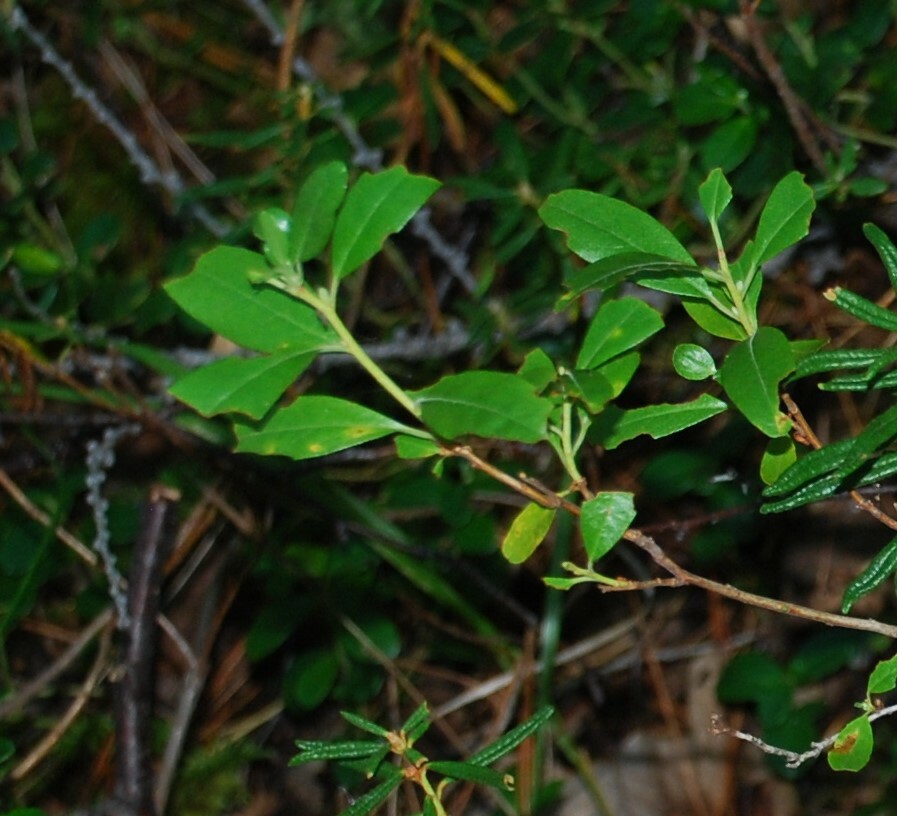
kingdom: Plantae
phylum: Tracheophyta
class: Magnoliopsida
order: Ericales
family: Ericaceae
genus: Rhododendron
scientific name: Rhododendron dauricum
